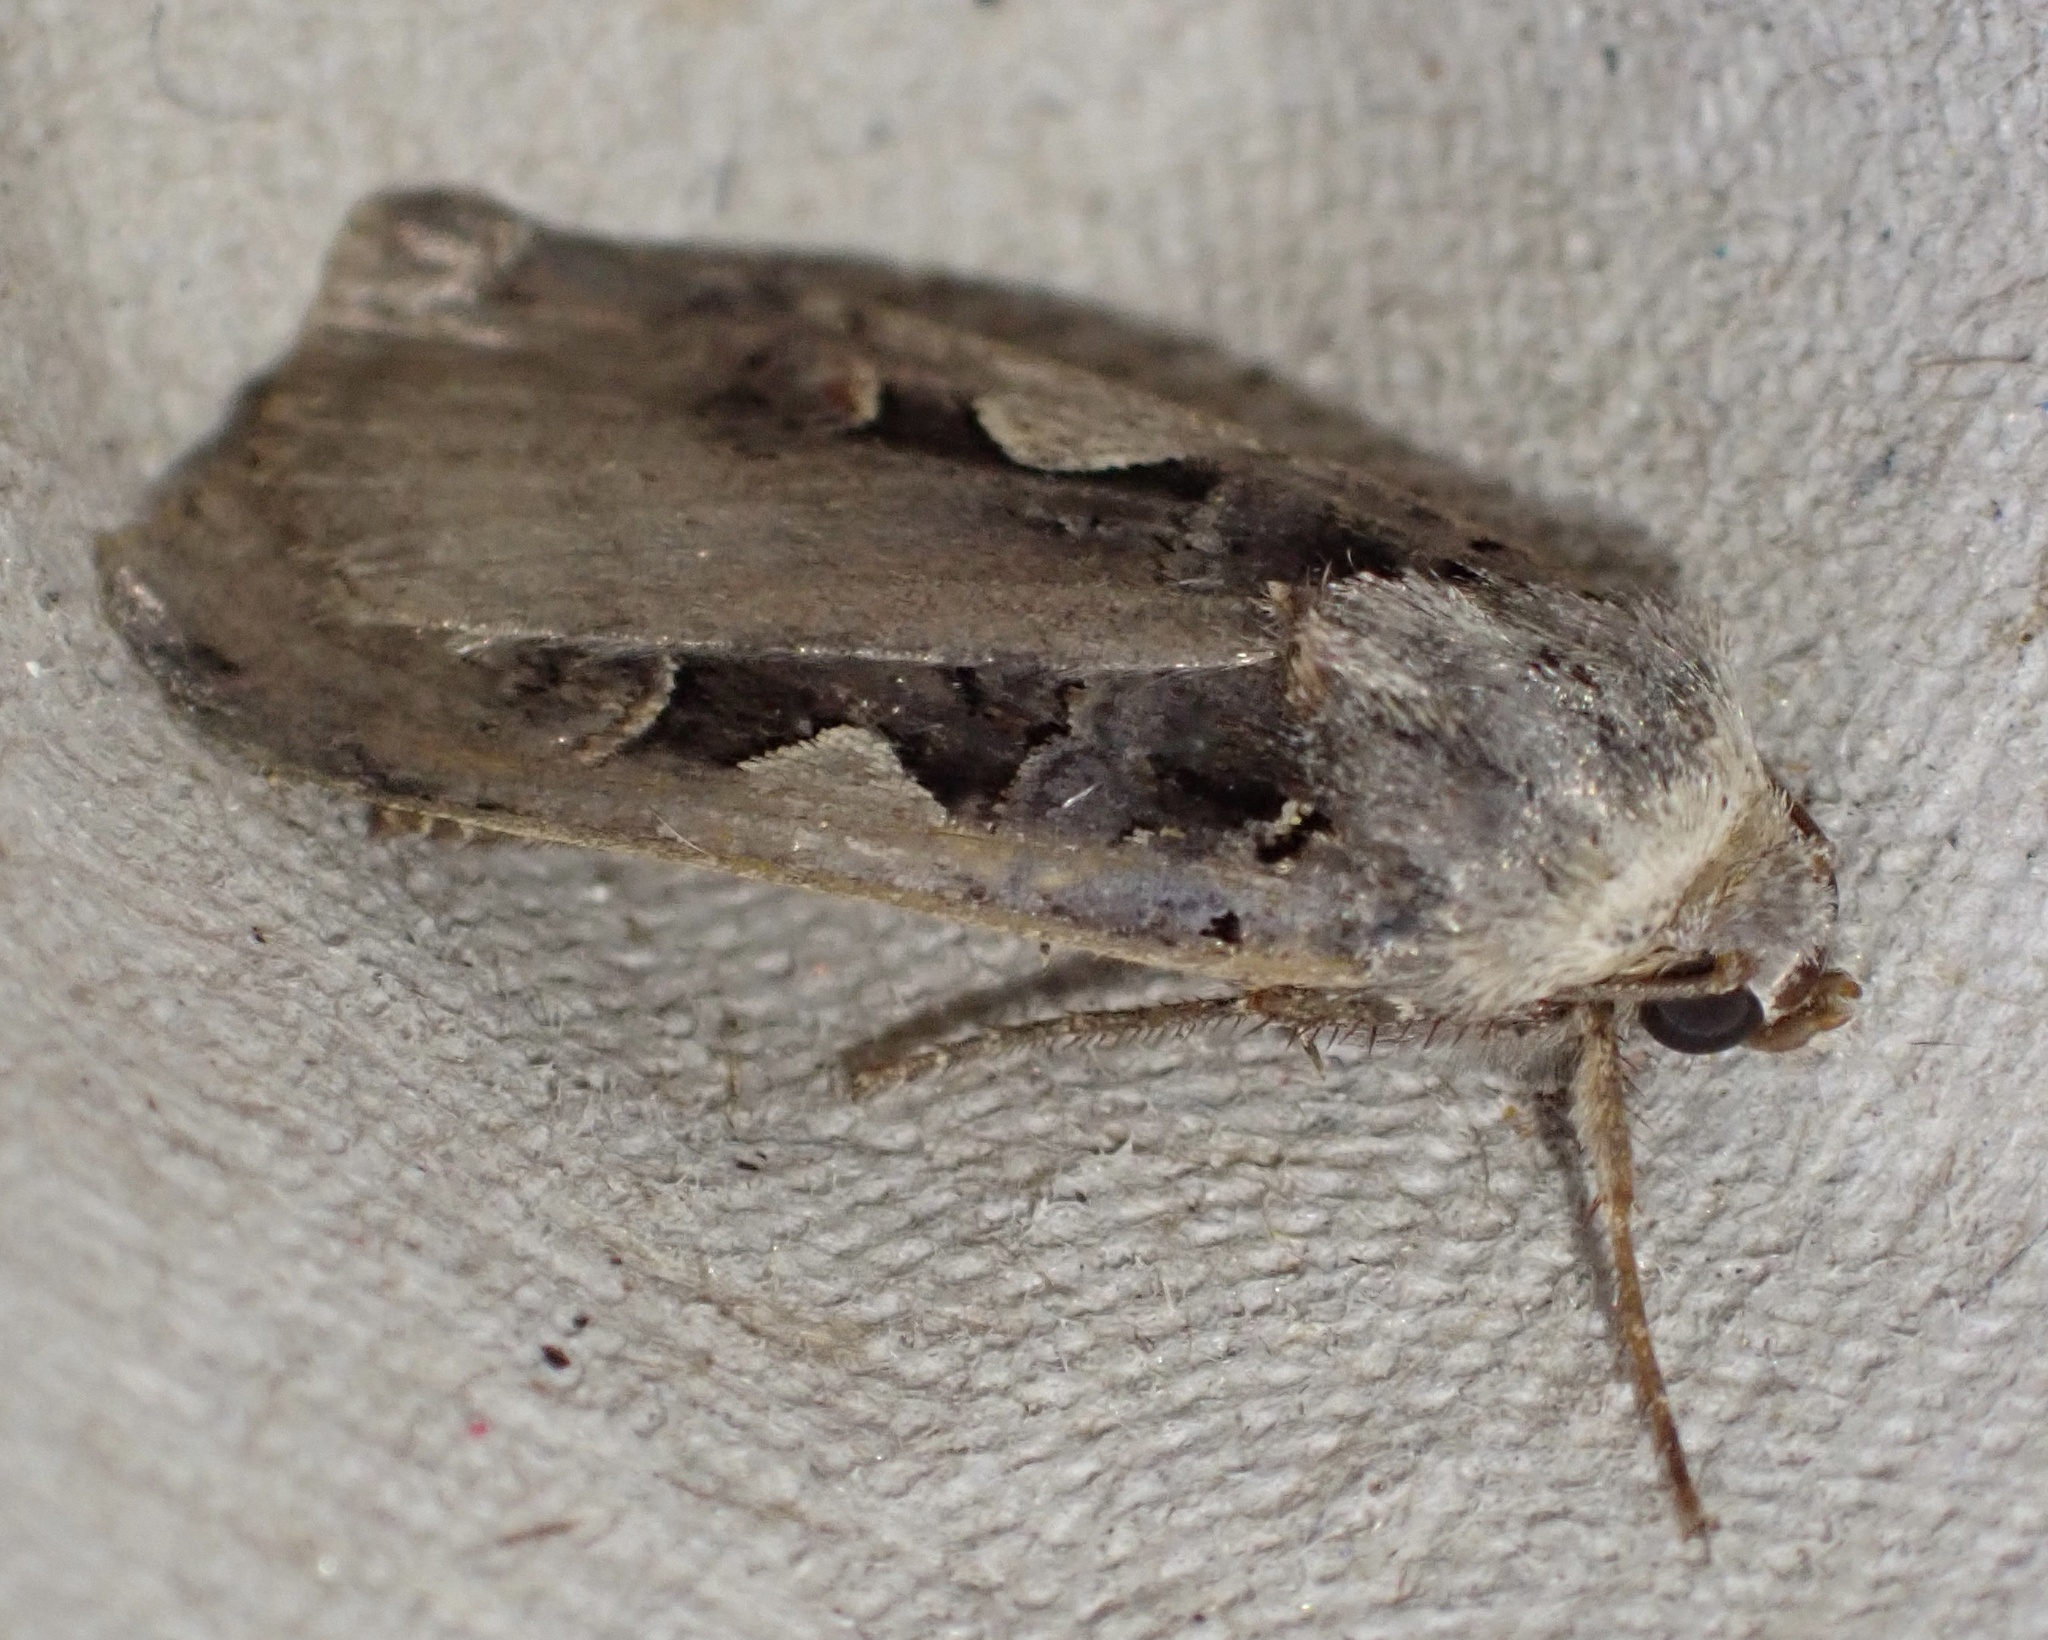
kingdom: Animalia
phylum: Arthropoda
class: Insecta
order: Lepidoptera
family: Noctuidae
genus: Xestia
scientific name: Xestia c-nigrum
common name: Setaceous hebrew character
